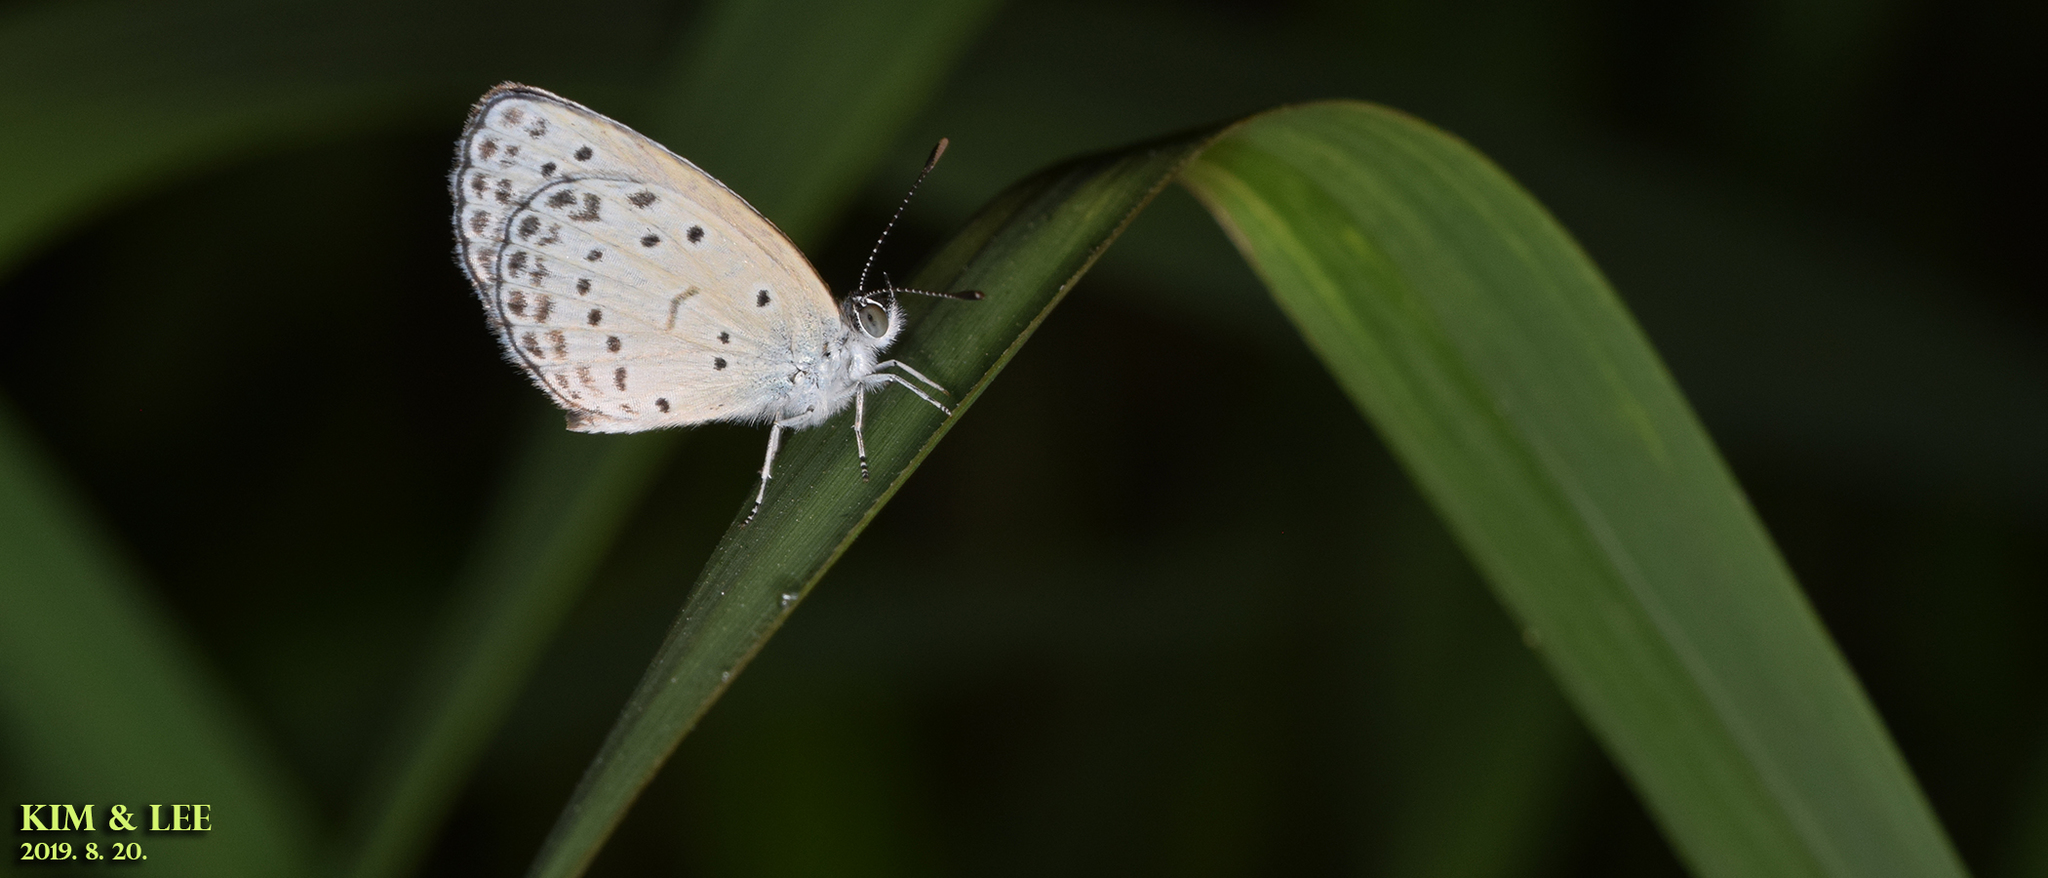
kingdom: Animalia
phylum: Arthropoda
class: Insecta
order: Lepidoptera
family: Lycaenidae
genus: Pseudozizeeria
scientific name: Pseudozizeeria maha
